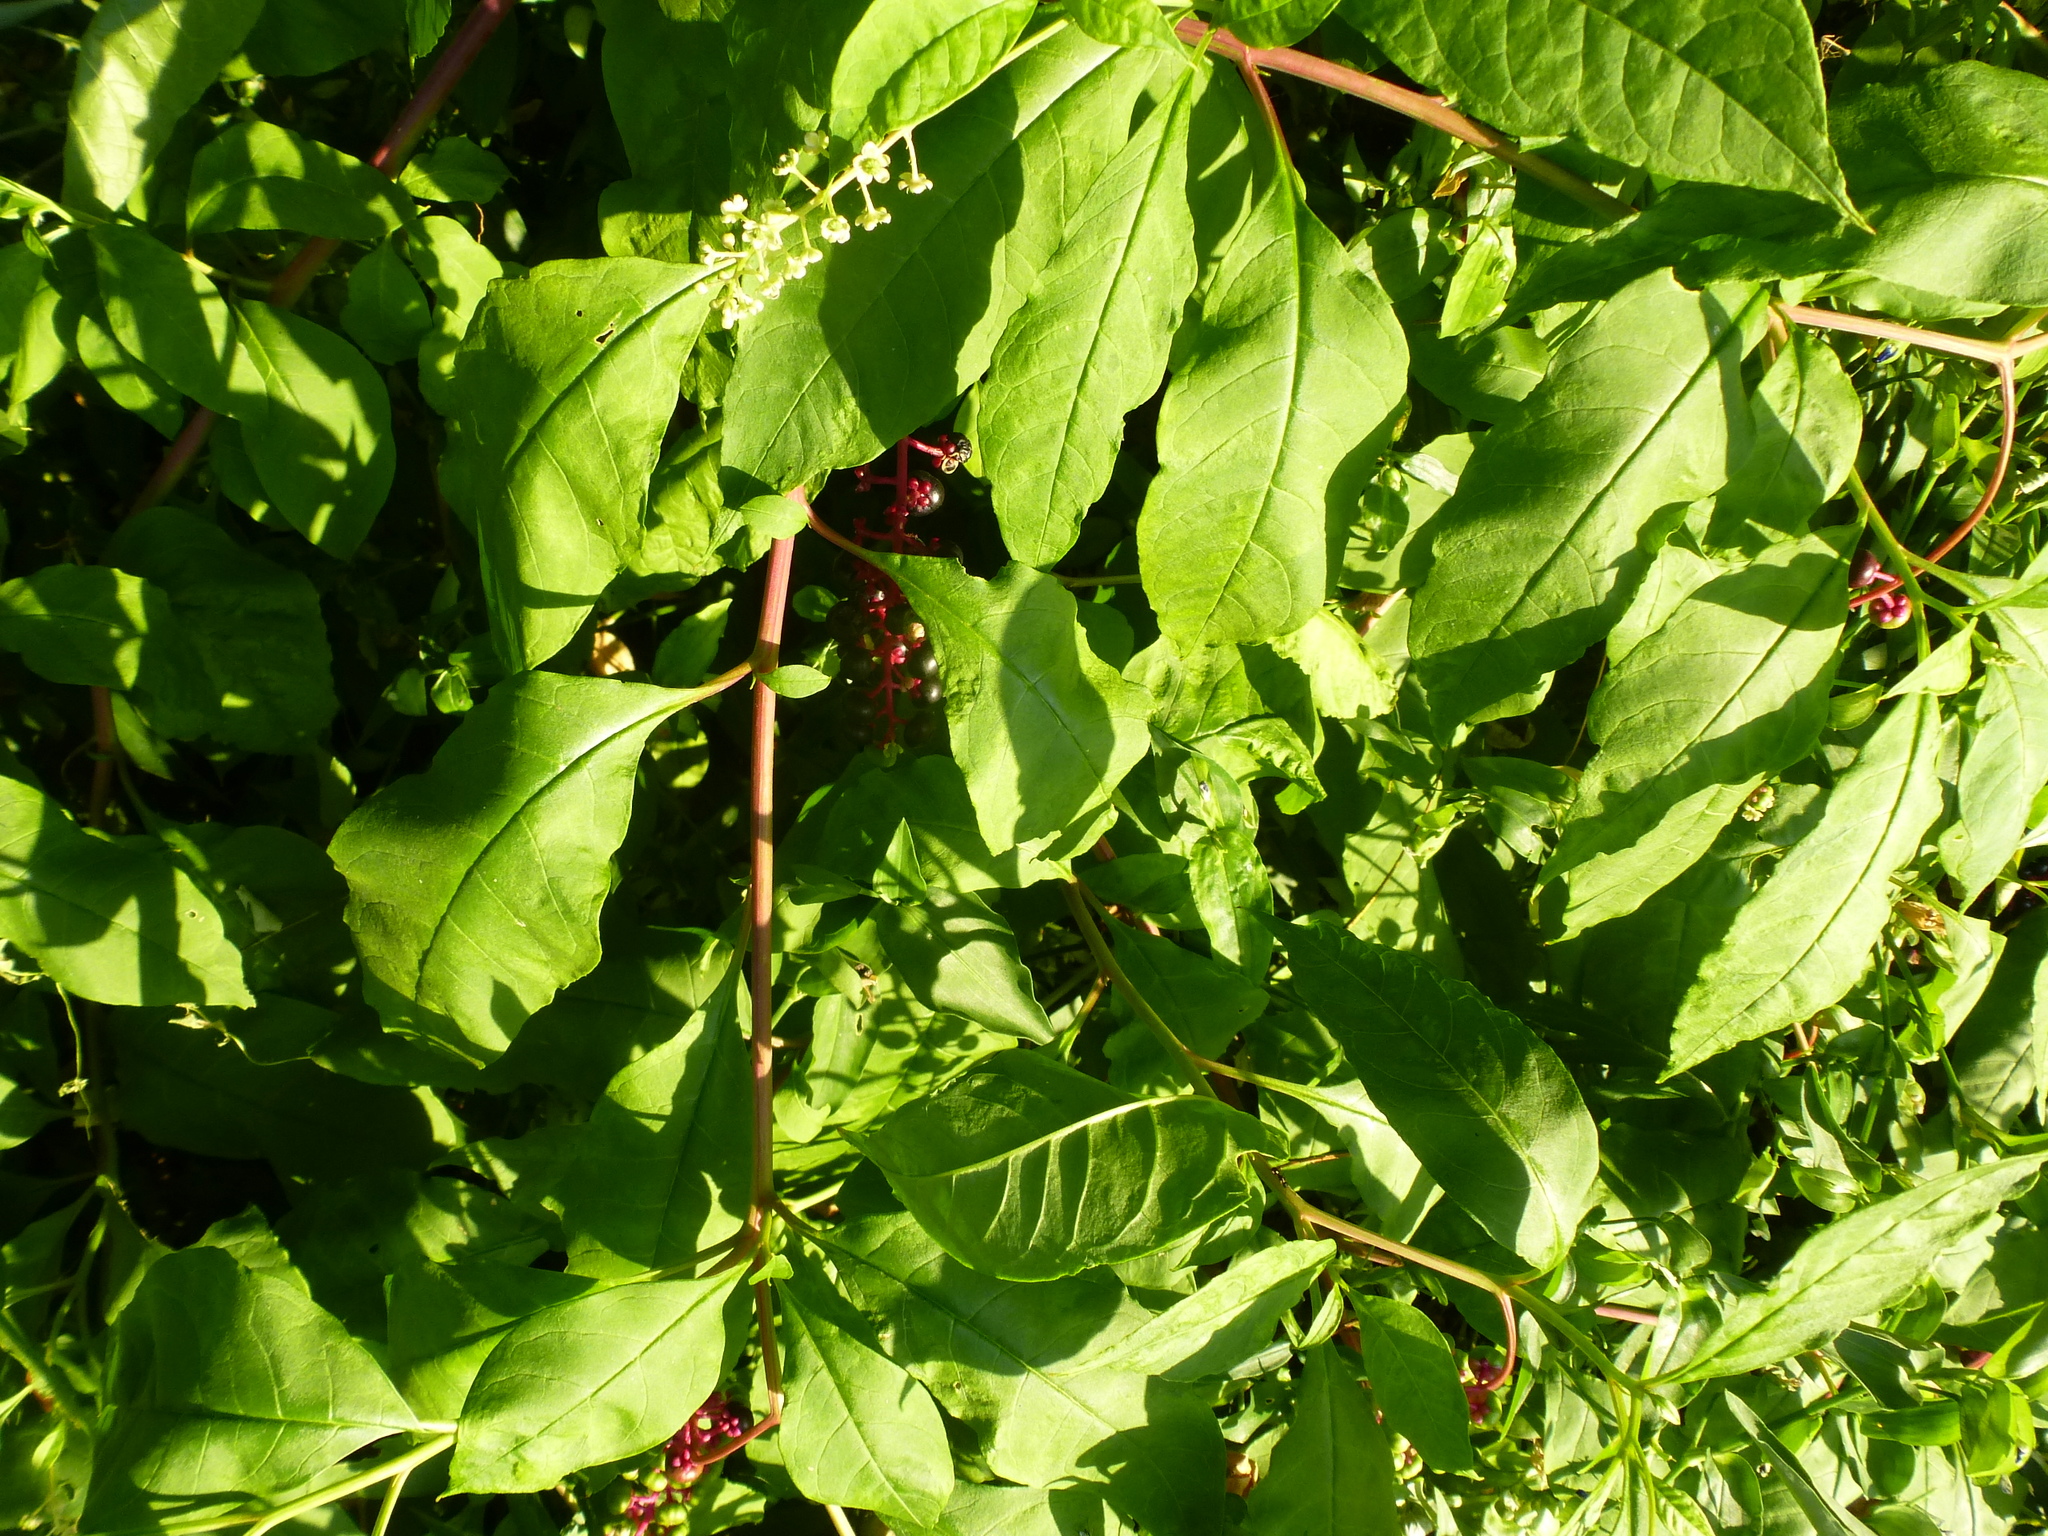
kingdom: Plantae
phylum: Tracheophyta
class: Magnoliopsida
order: Caryophyllales
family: Phytolaccaceae
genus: Phytolacca
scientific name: Phytolacca americana
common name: American pokeweed
